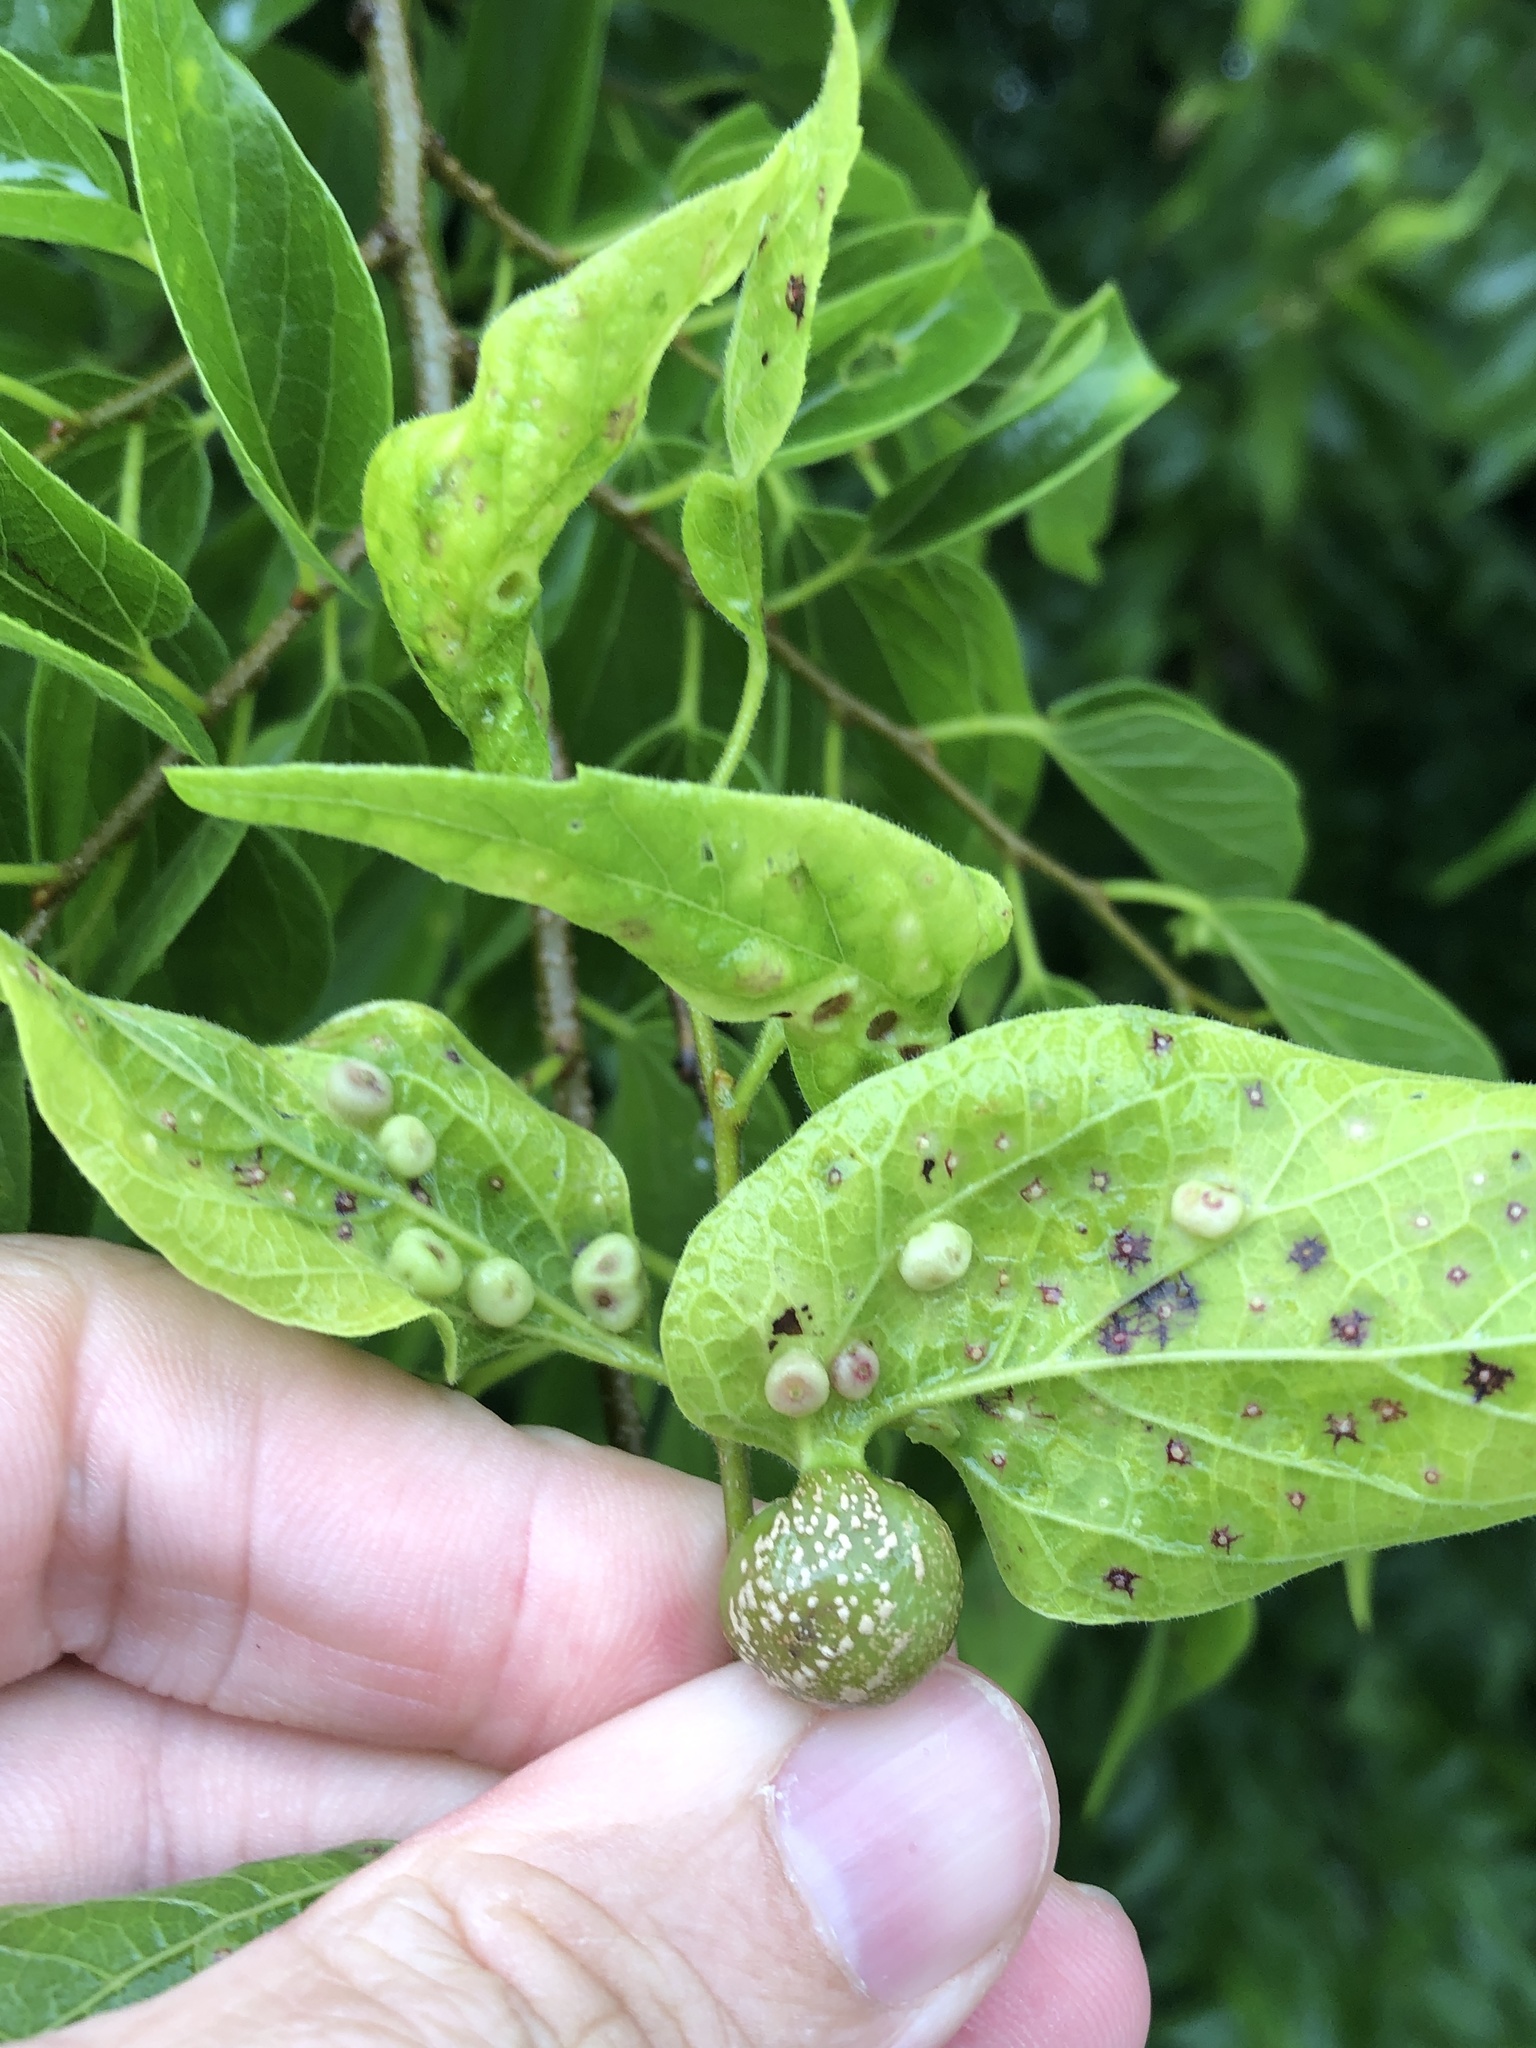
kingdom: Animalia
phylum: Arthropoda
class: Insecta
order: Hemiptera
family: Aphalaridae
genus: Pachypsylla
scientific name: Pachypsylla venusta
